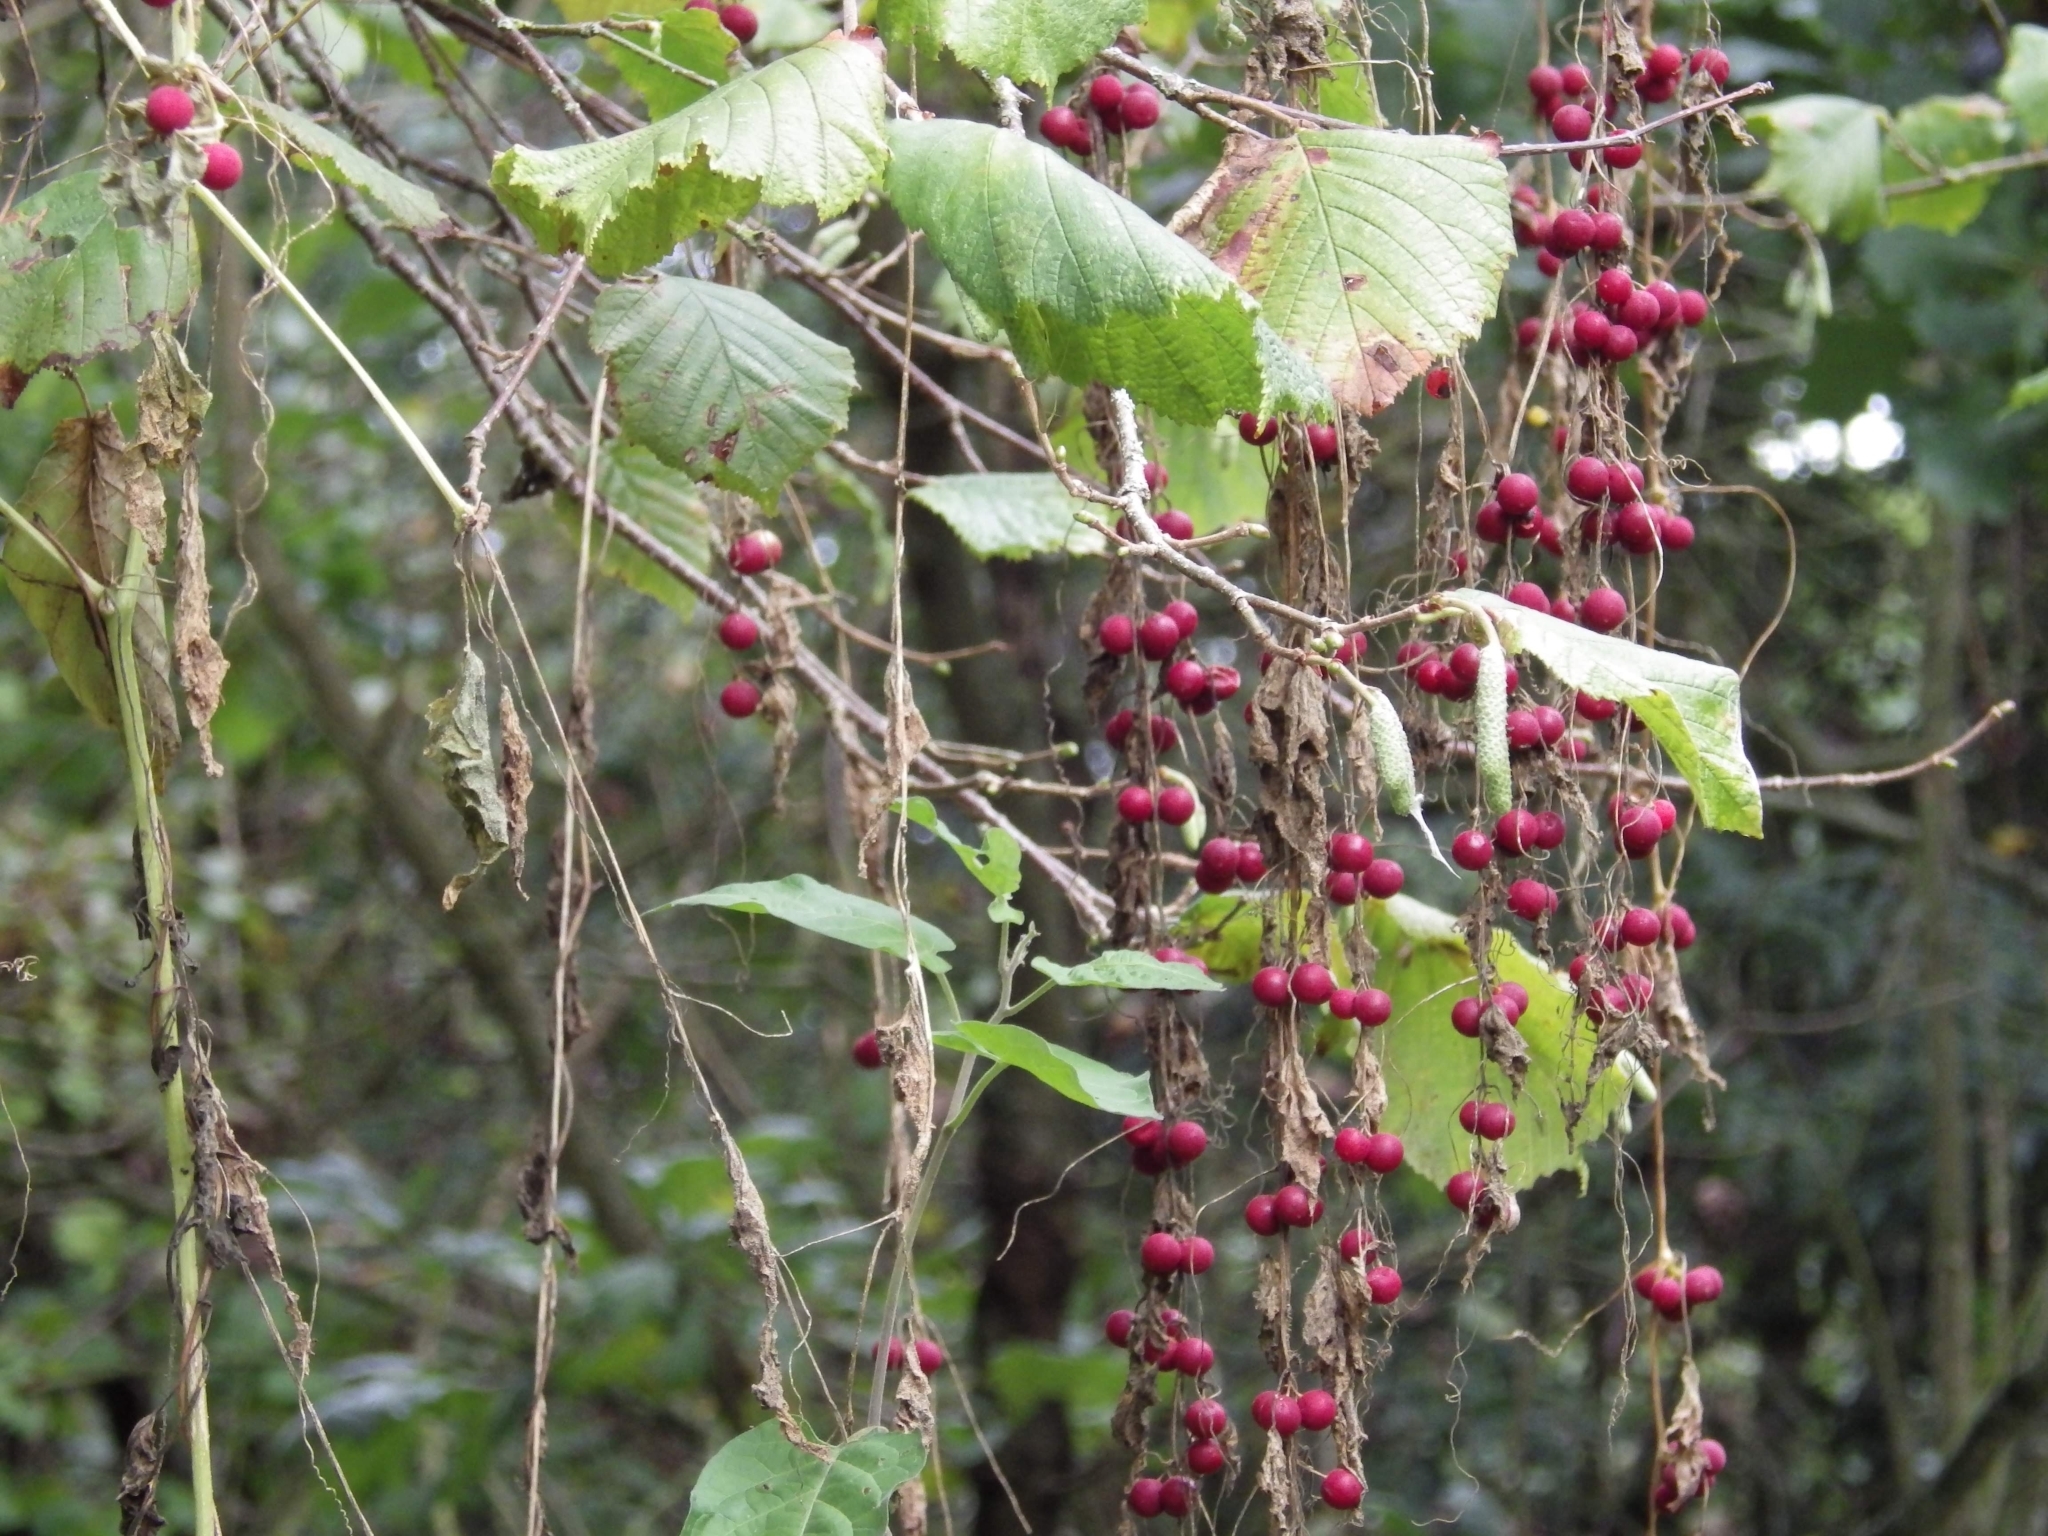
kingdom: Plantae
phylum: Tracheophyta
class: Magnoliopsida
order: Cucurbitales
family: Cucurbitaceae
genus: Bryonia
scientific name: Bryonia dioica
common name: White bryony
